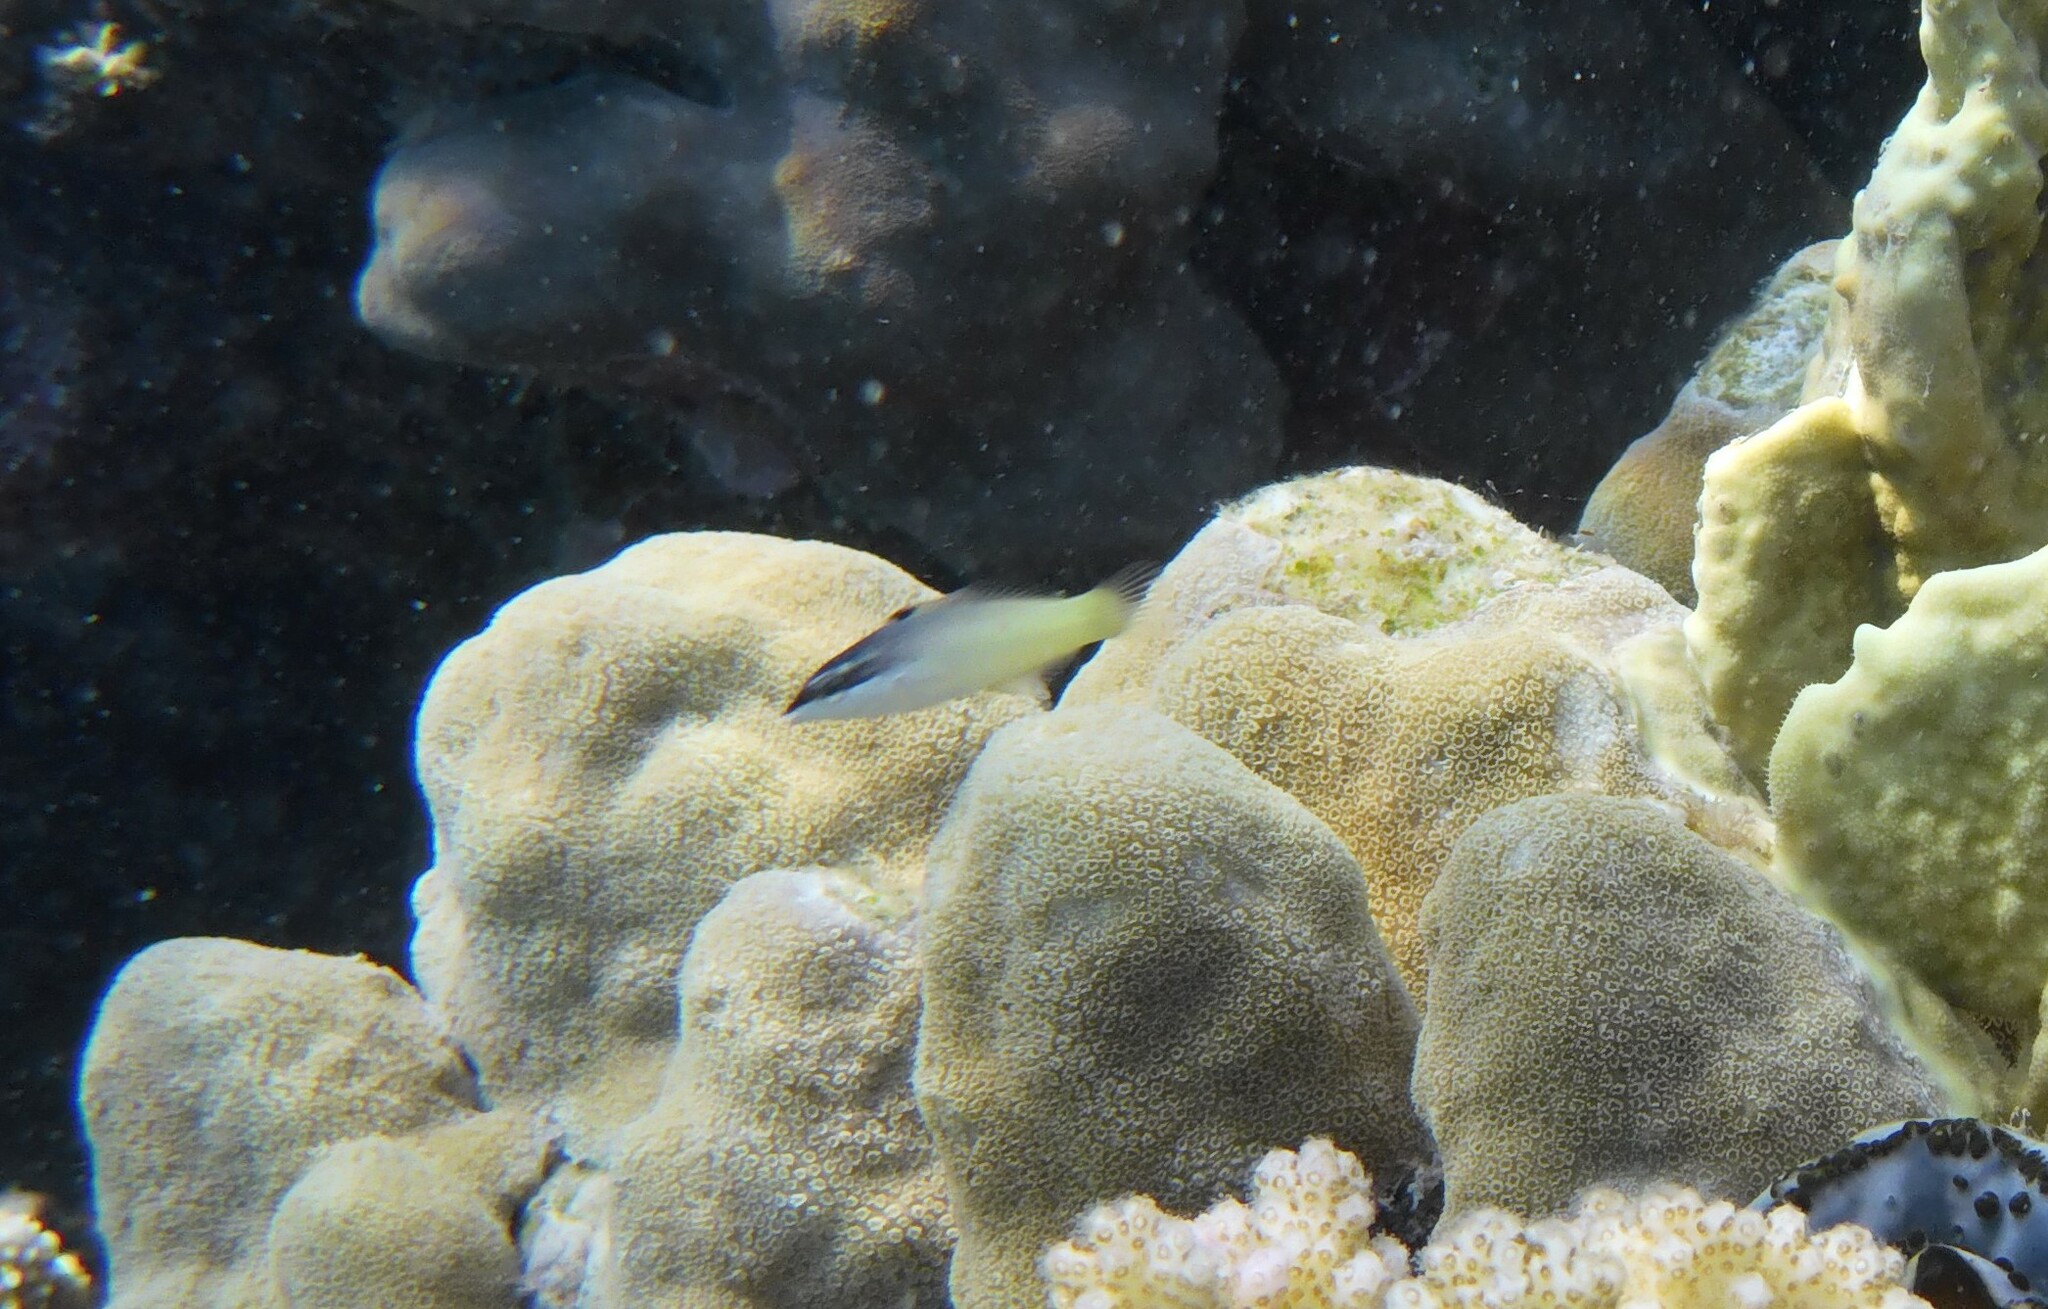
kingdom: Animalia
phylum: Chordata
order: Perciformes
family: Labridae
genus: Gomphosus
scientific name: Gomphosus klunzingeri
